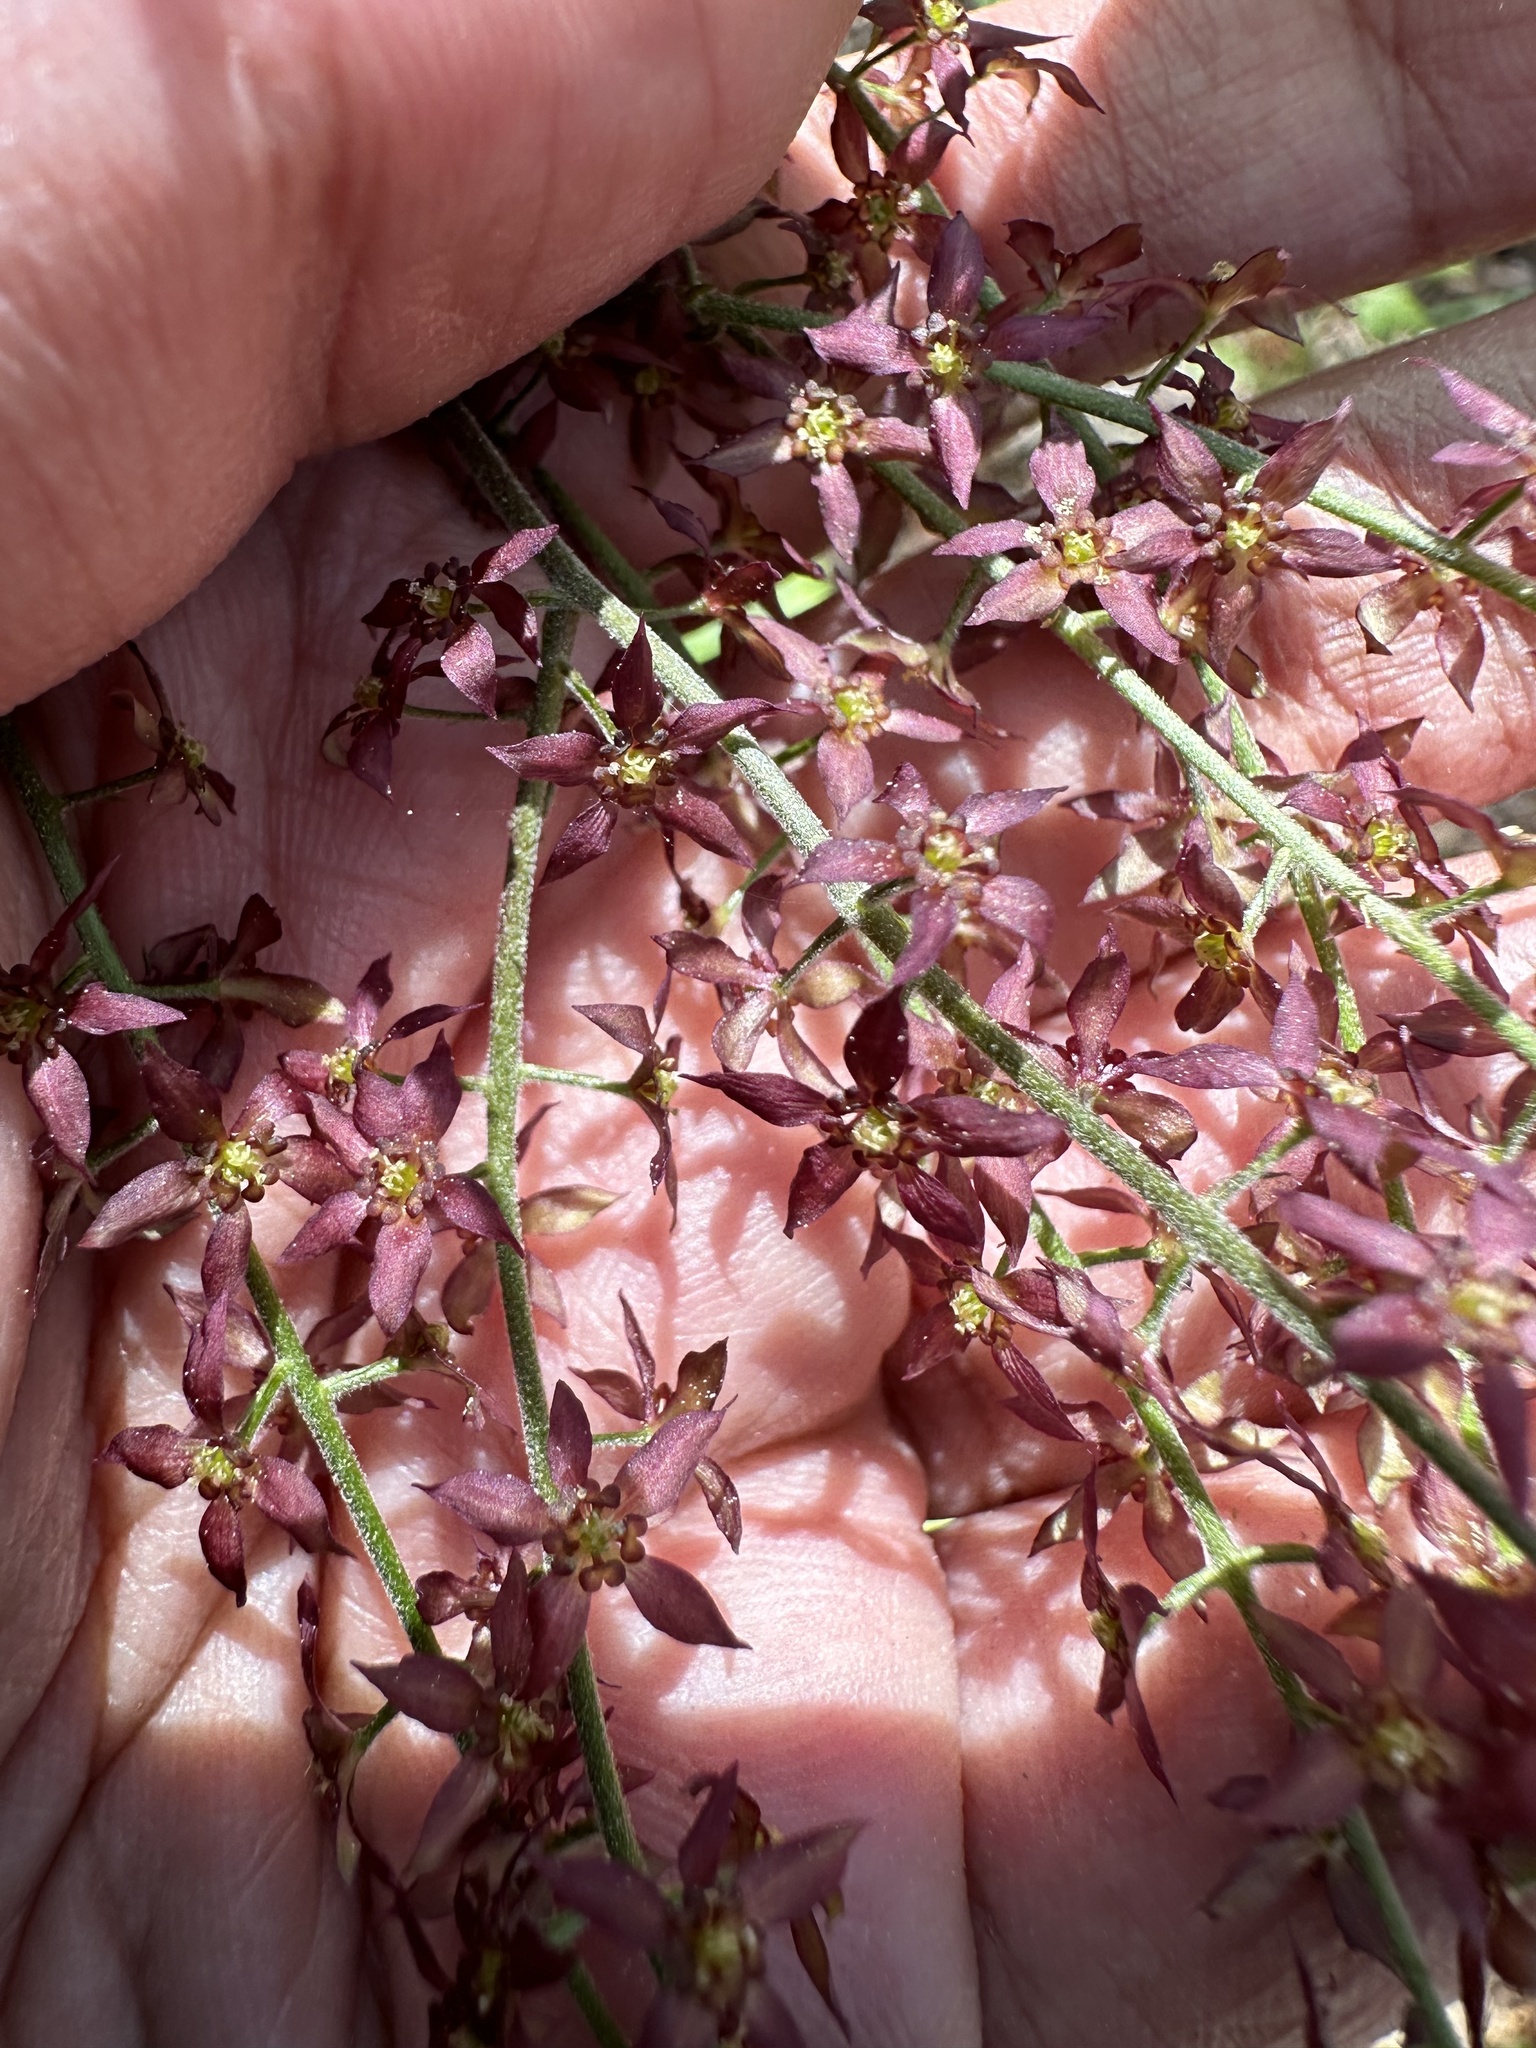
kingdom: Plantae
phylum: Tracheophyta
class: Magnoliopsida
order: Ranunculales
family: Ranunculaceae
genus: Xanthorhiza
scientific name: Xanthorhiza simplicissima
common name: Yellowroot
